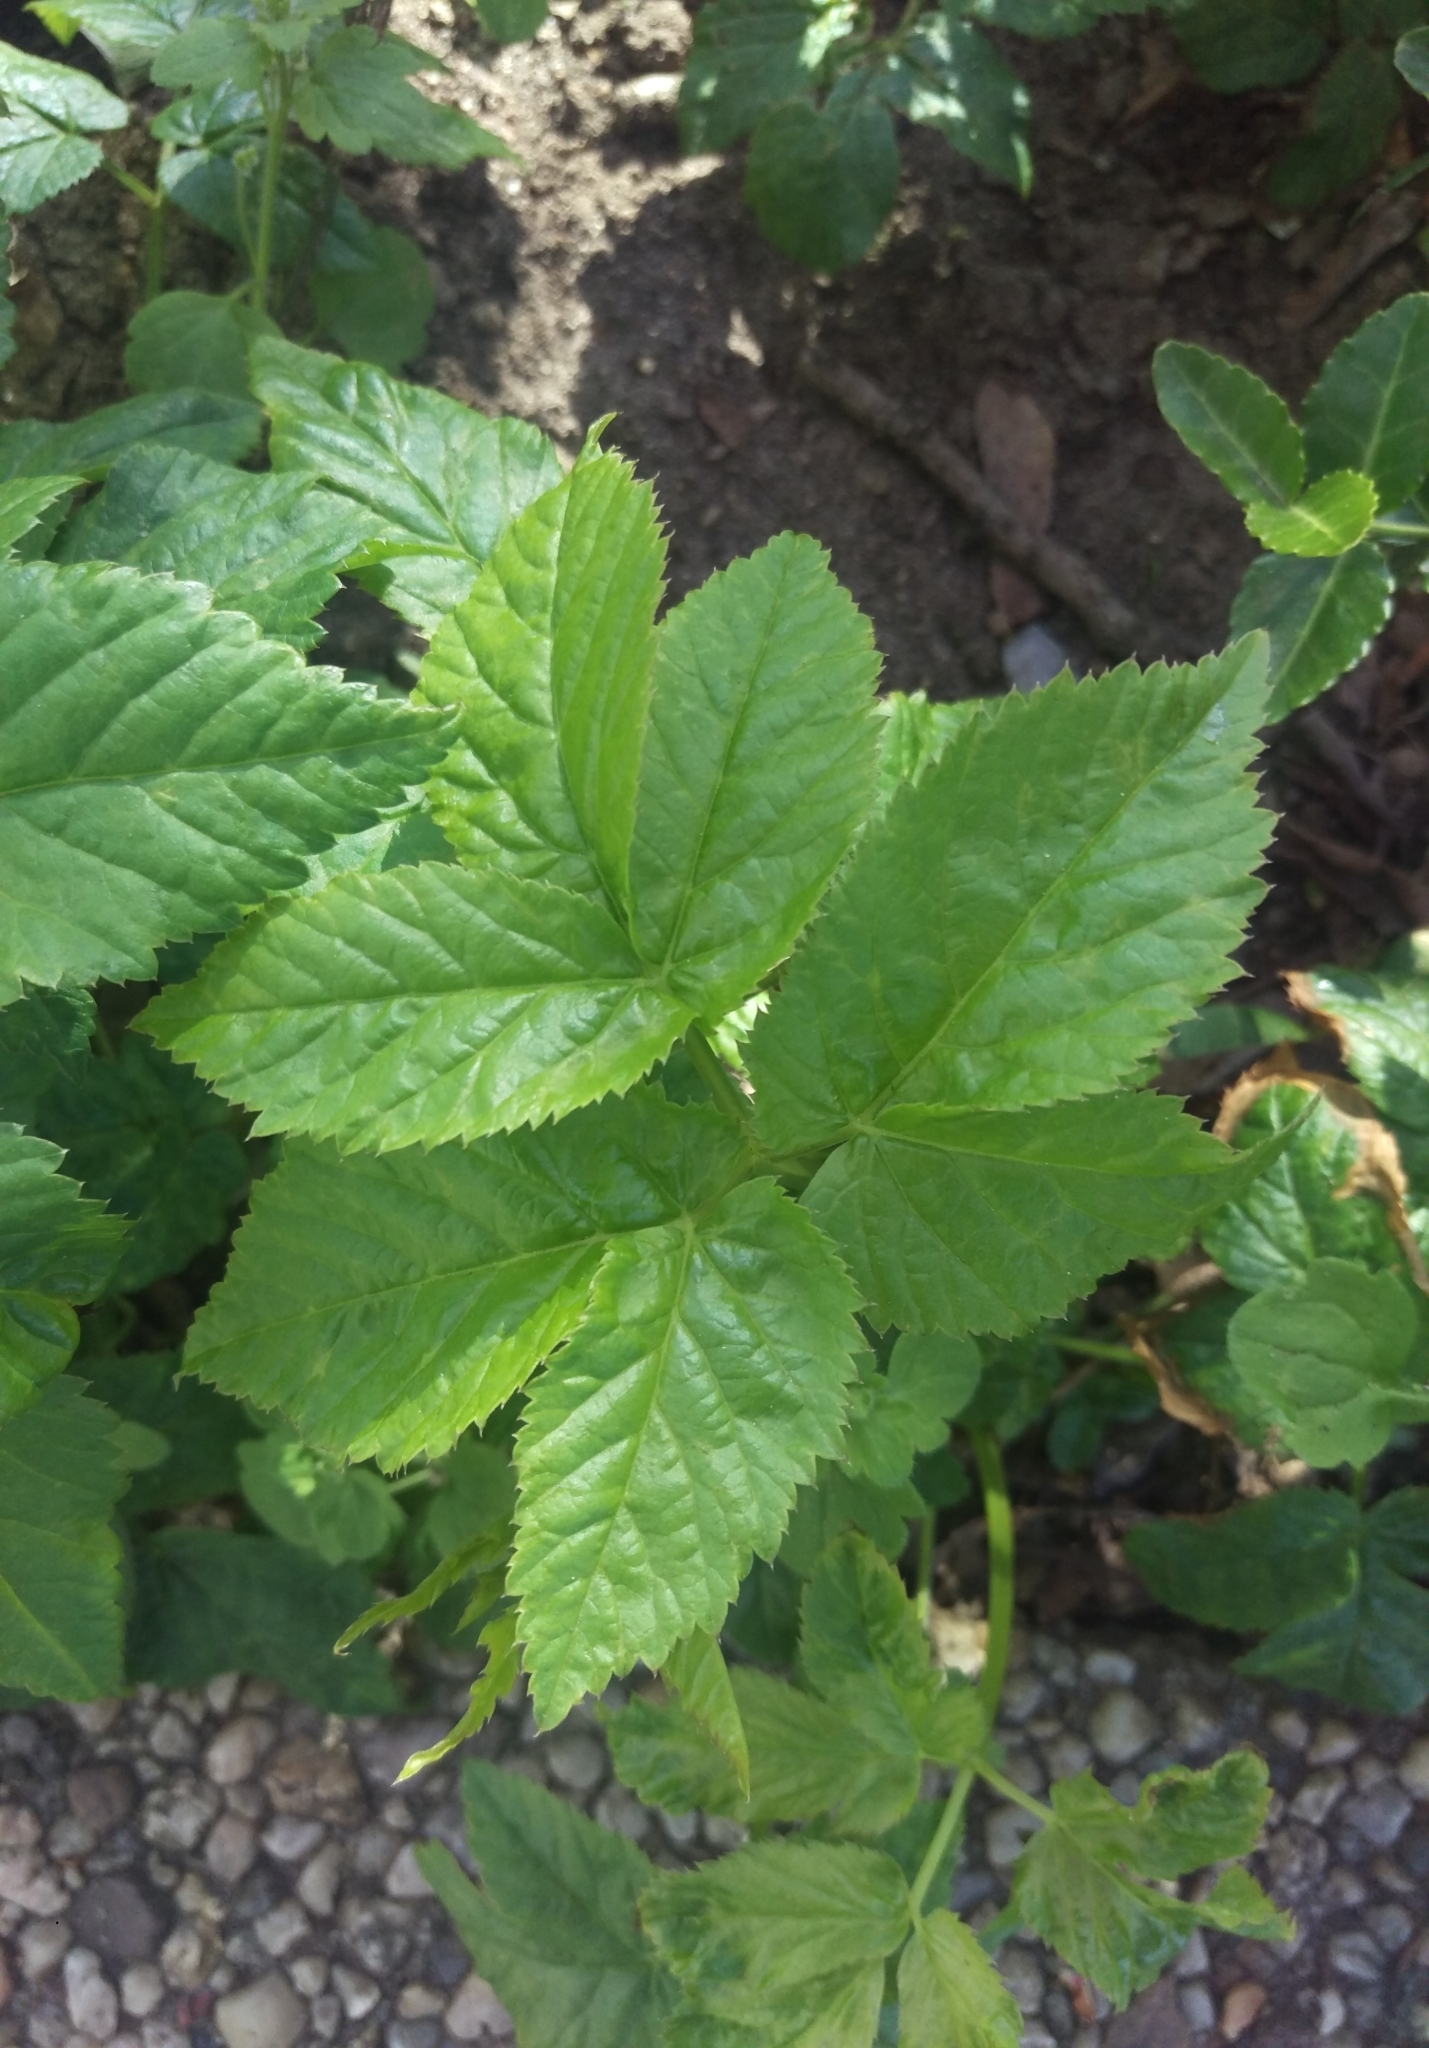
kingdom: Plantae
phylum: Tracheophyta
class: Magnoliopsida
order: Apiales
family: Apiaceae
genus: Aegopodium
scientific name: Aegopodium podagraria
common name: Ground-elder
